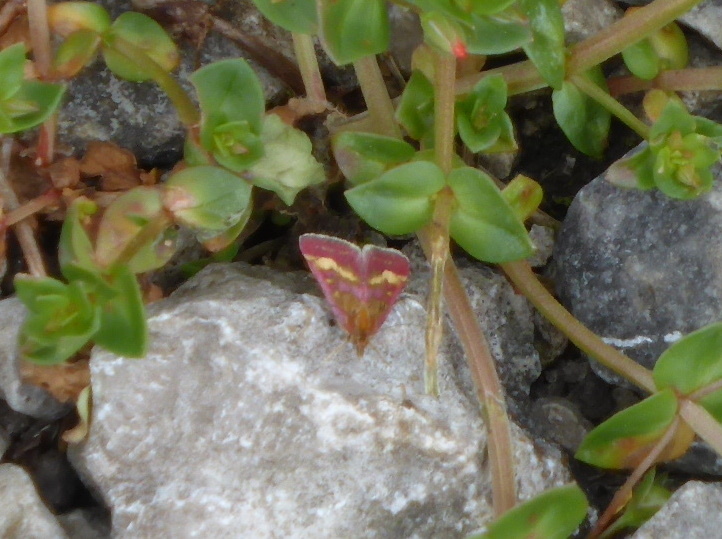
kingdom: Animalia
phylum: Arthropoda
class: Insecta
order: Lepidoptera
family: Crambidae
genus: Pyrausta
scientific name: Pyrausta ostrinalis
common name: Scarce purple & gold
